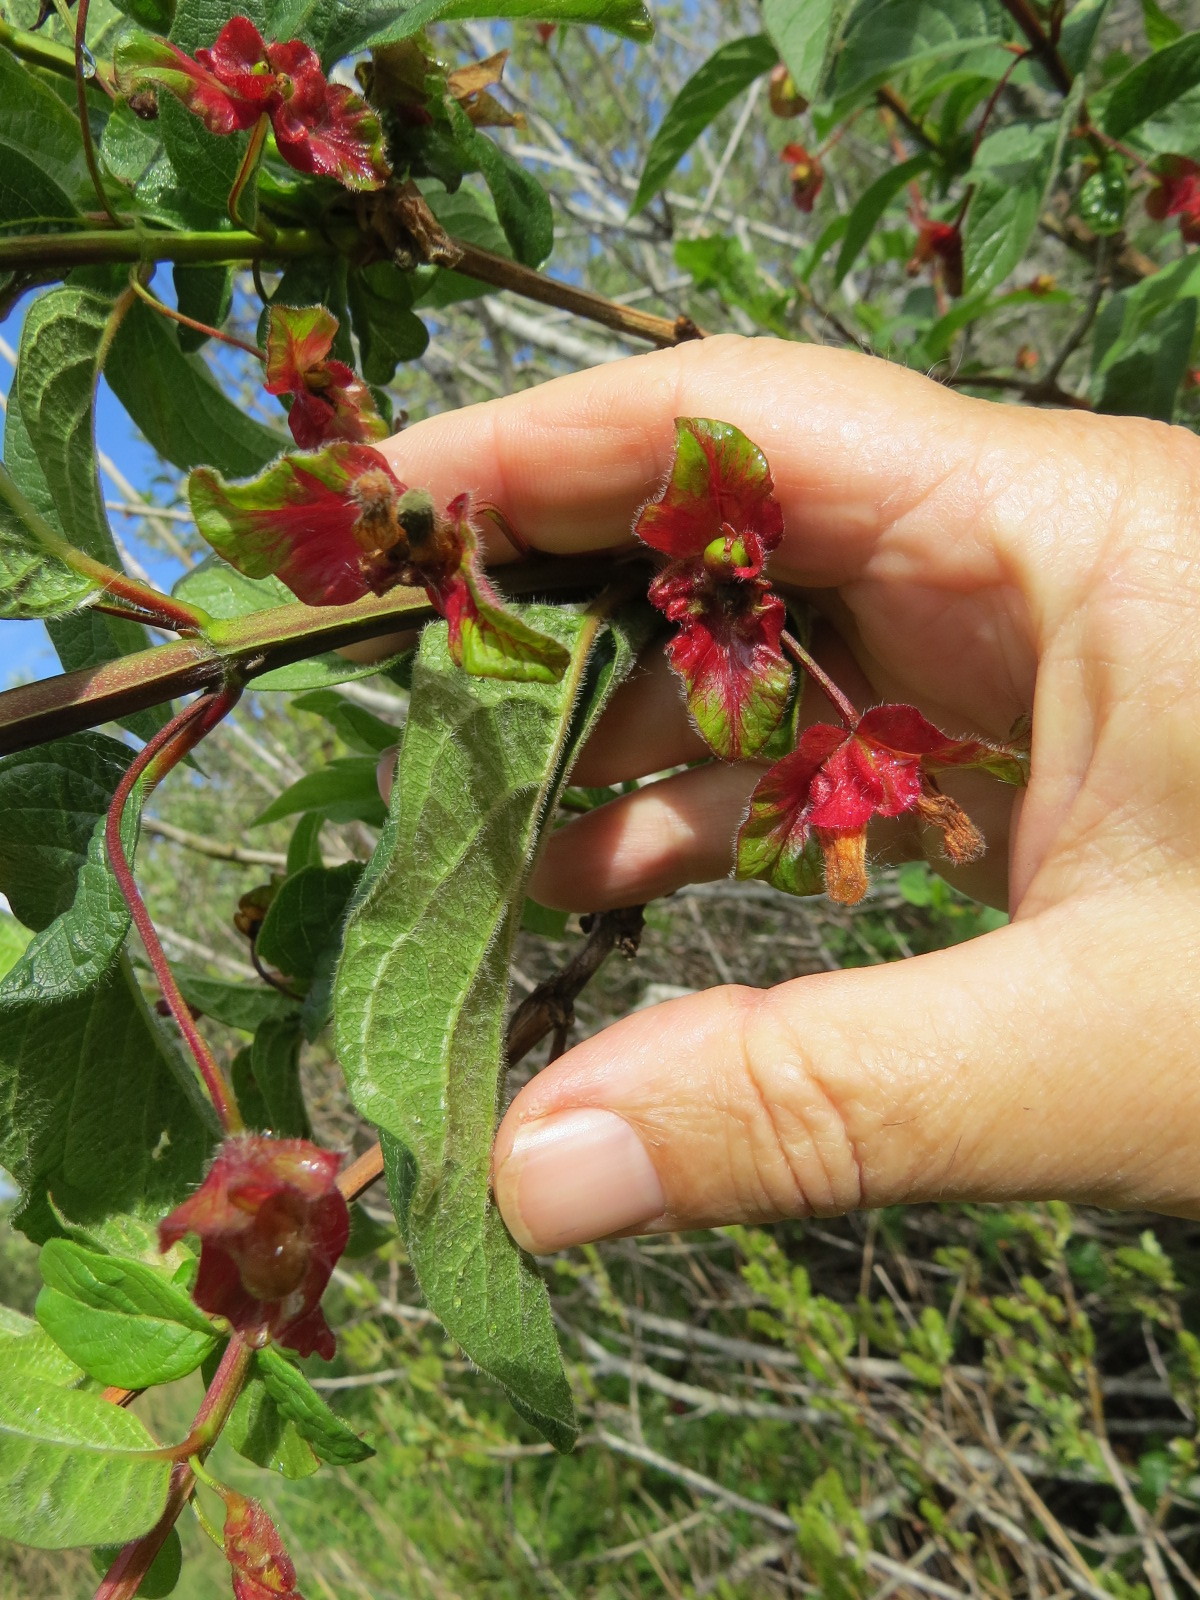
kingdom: Plantae
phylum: Tracheophyta
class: Magnoliopsida
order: Dipsacales
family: Caprifoliaceae
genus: Lonicera
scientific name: Lonicera involucrata
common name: Californian honeysuckle
